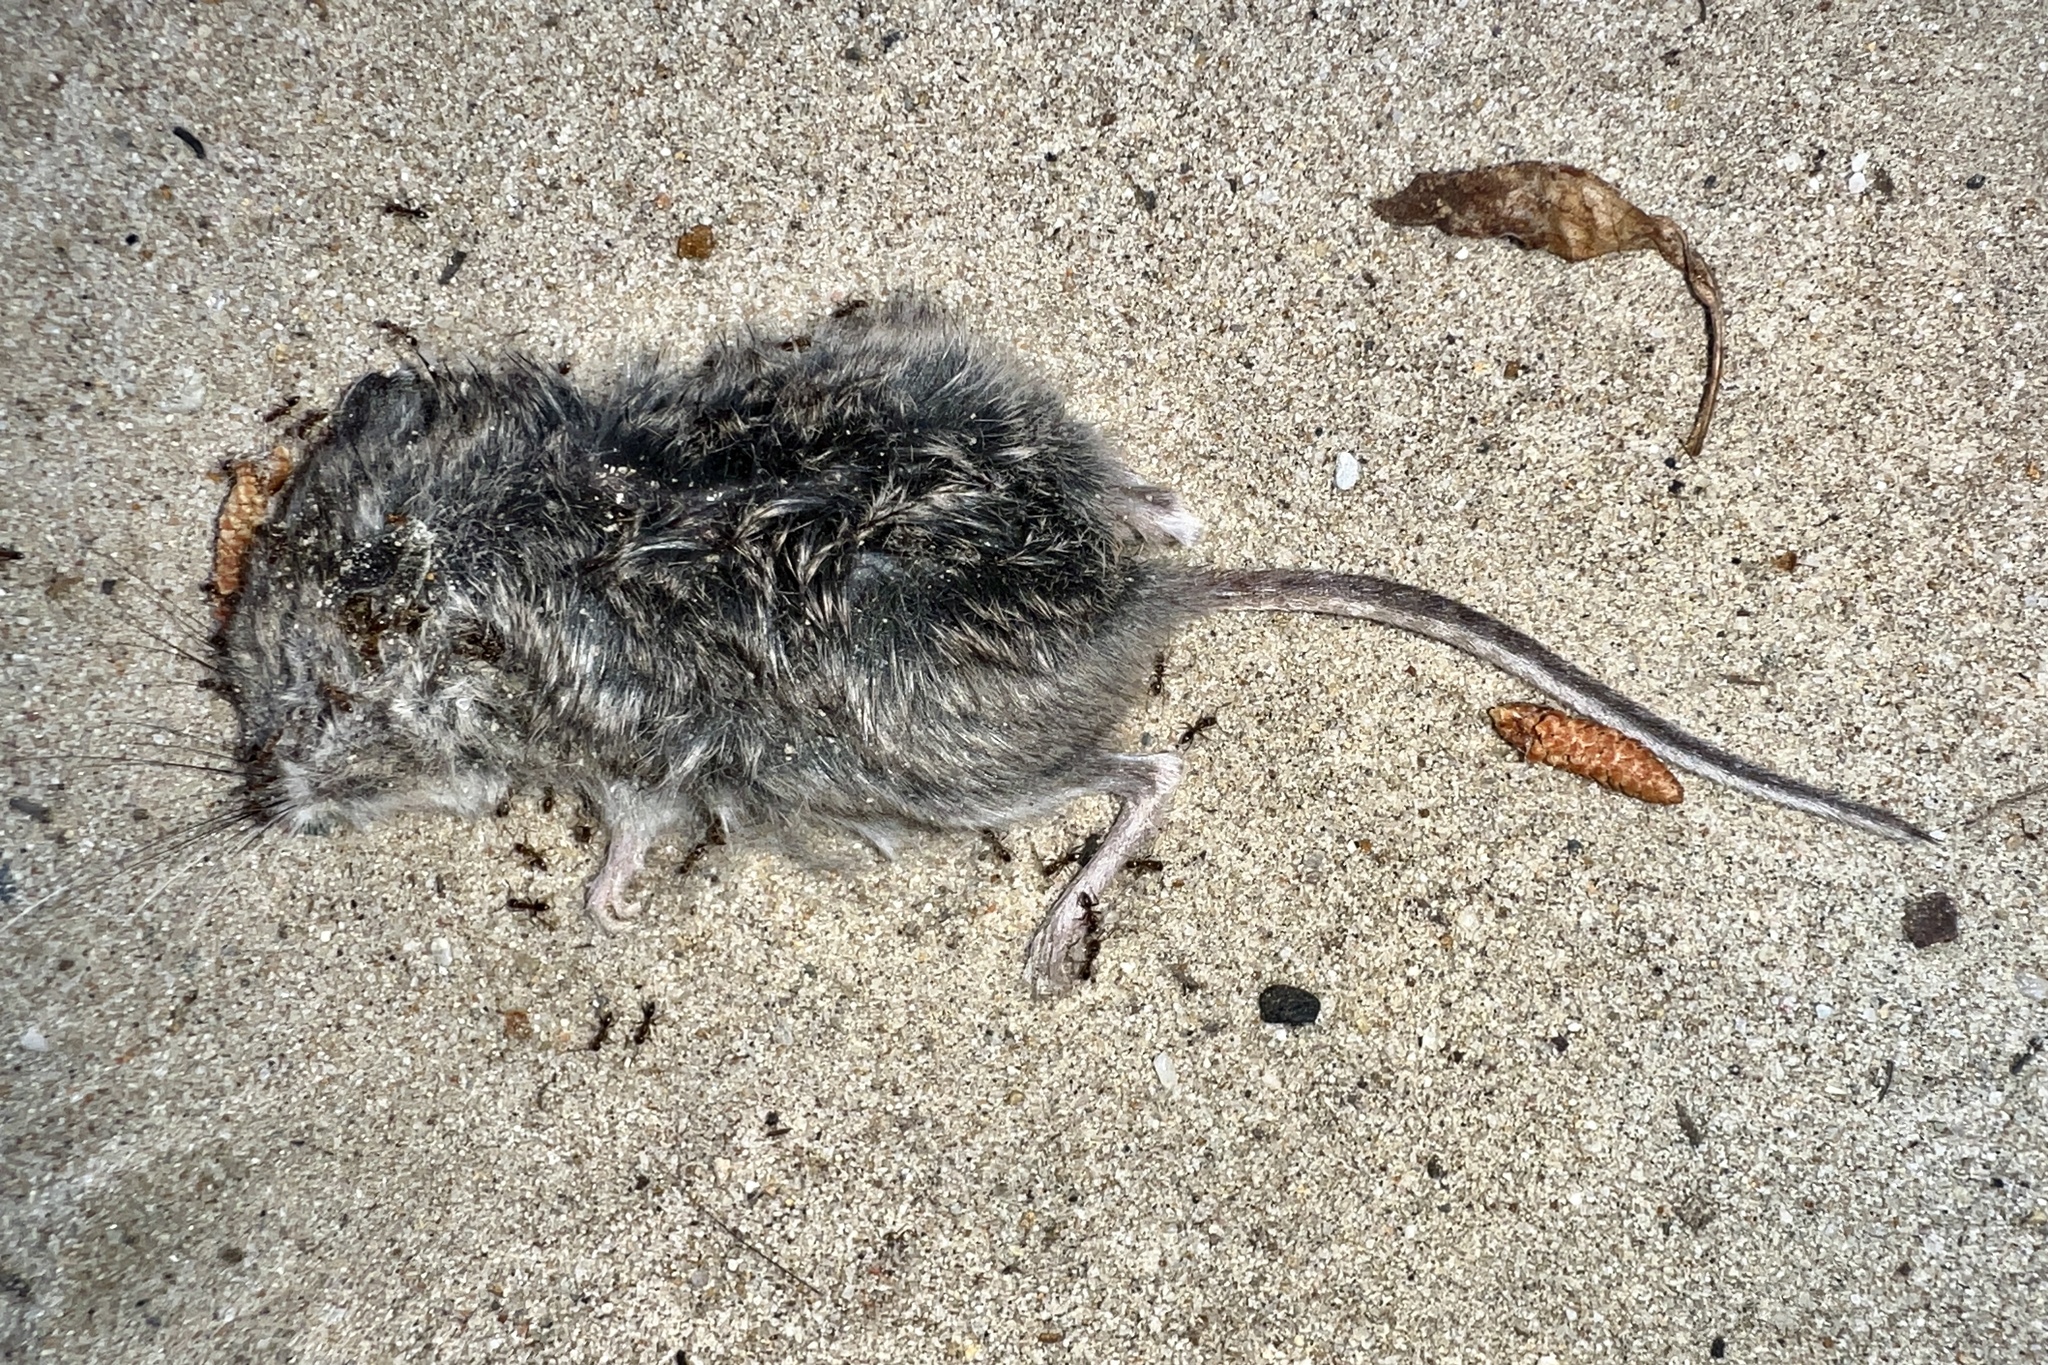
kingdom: Animalia
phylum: Chordata
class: Mammalia
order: Rodentia
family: Cricetidae
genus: Peromyscus
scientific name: Peromyscus maniculatus
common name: Deer mouse
